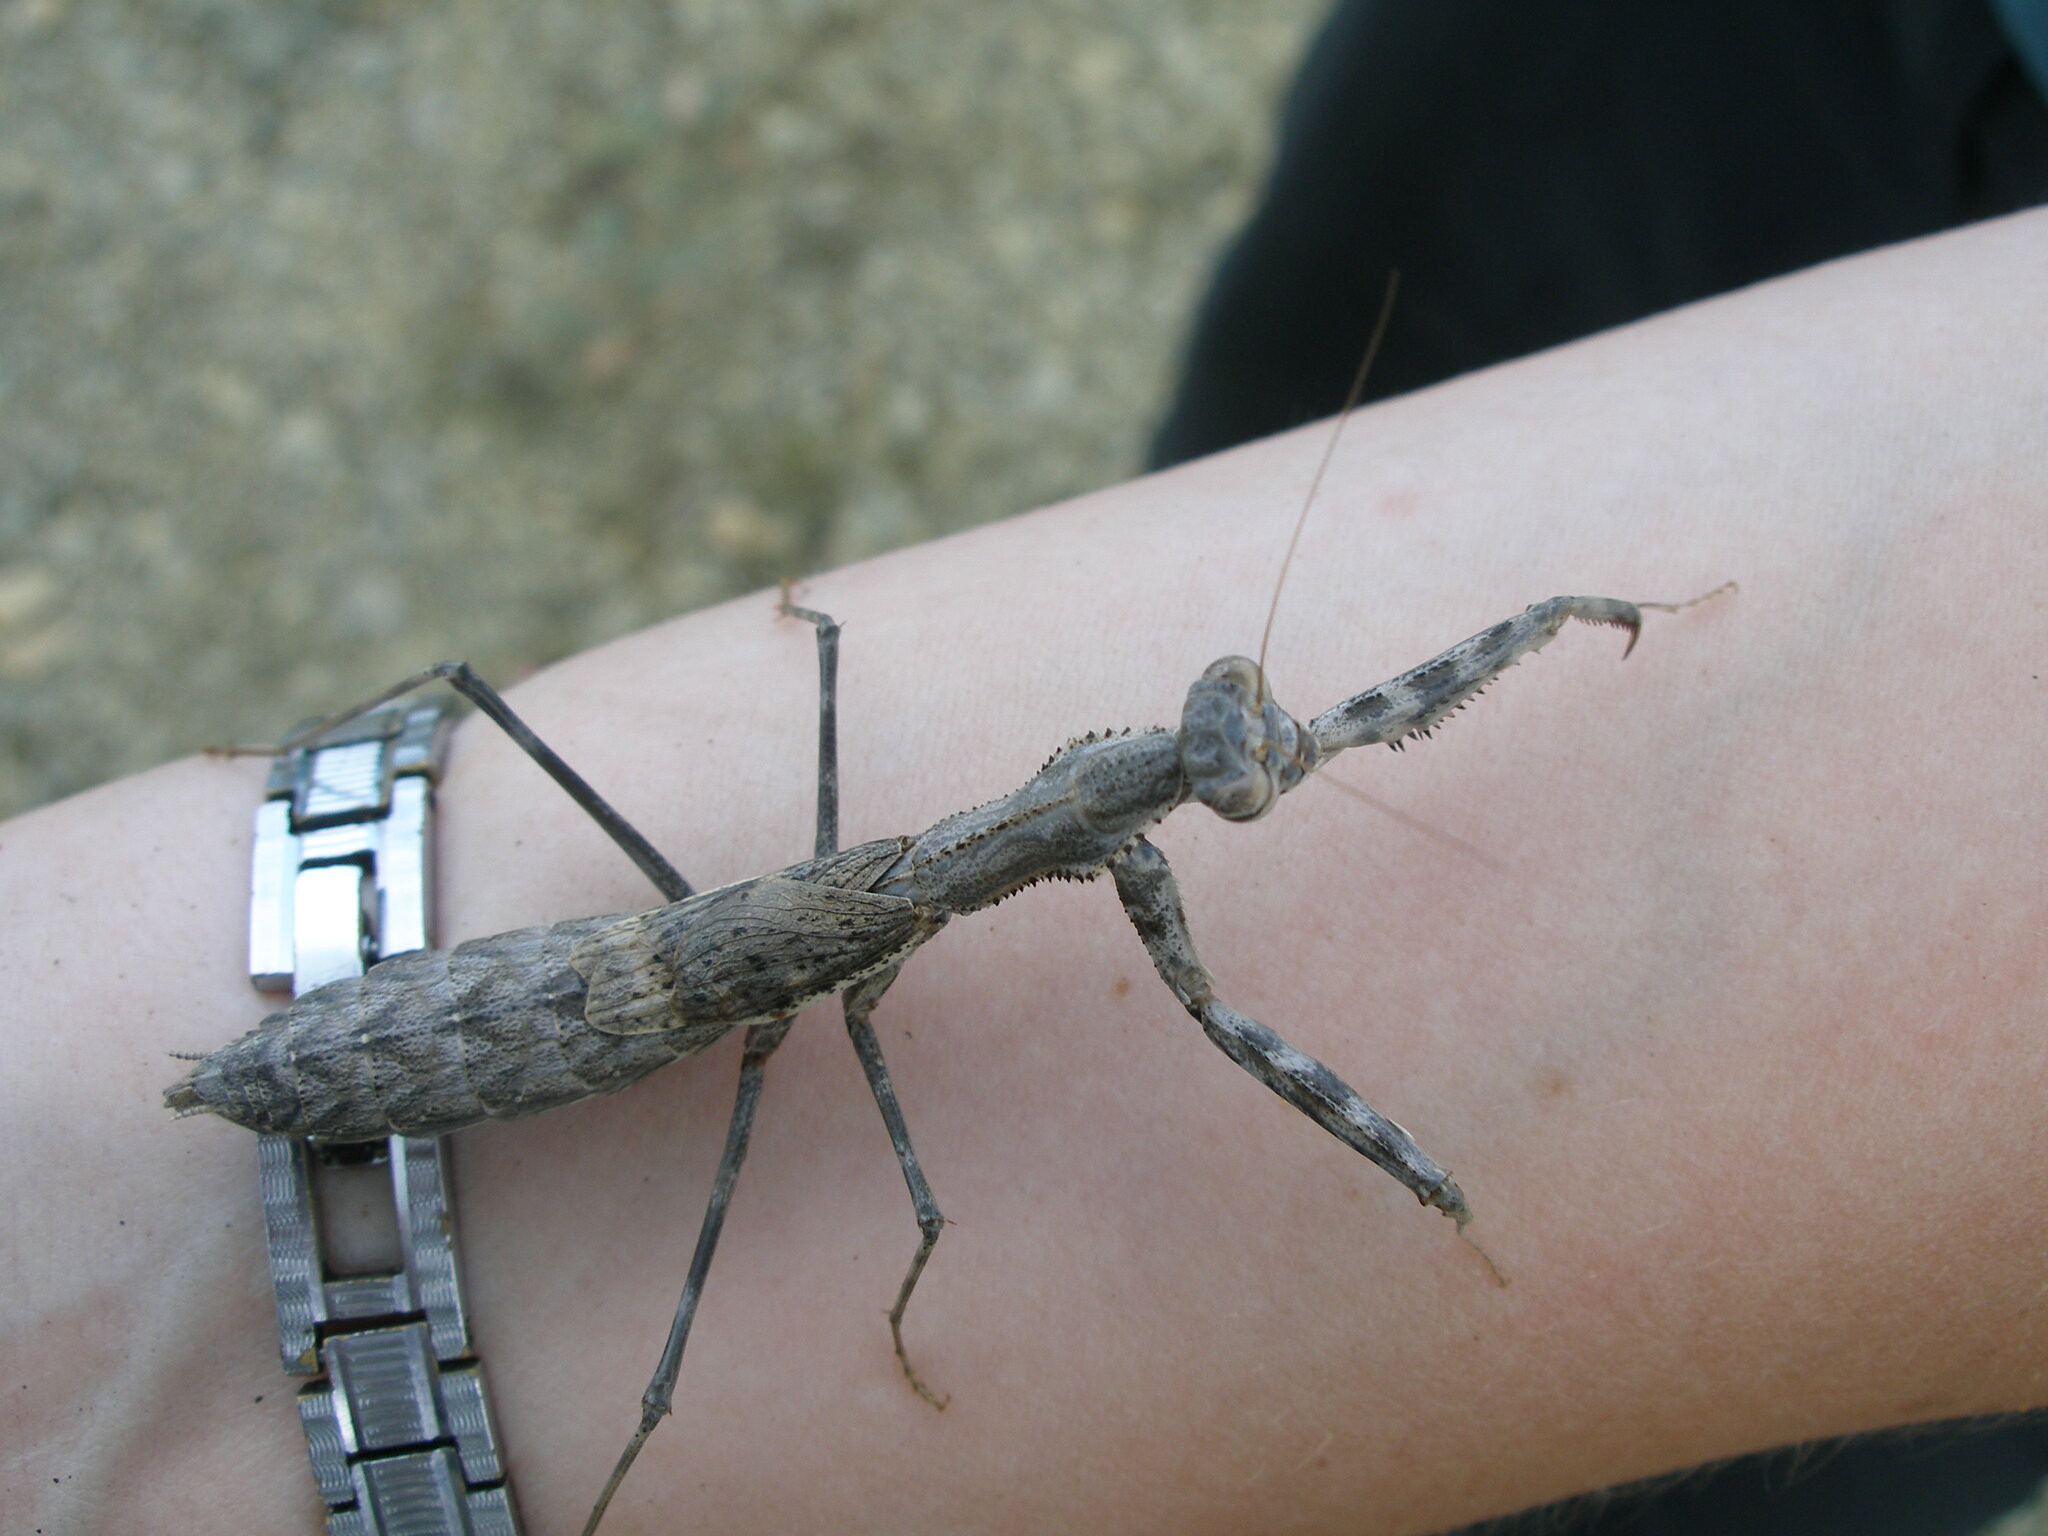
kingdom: Animalia
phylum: Arthropoda
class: Insecta
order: Mantodea
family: Rivetinidae
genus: Bolivaria
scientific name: Bolivaria brachyptera
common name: Bolivar's short winged mantis
